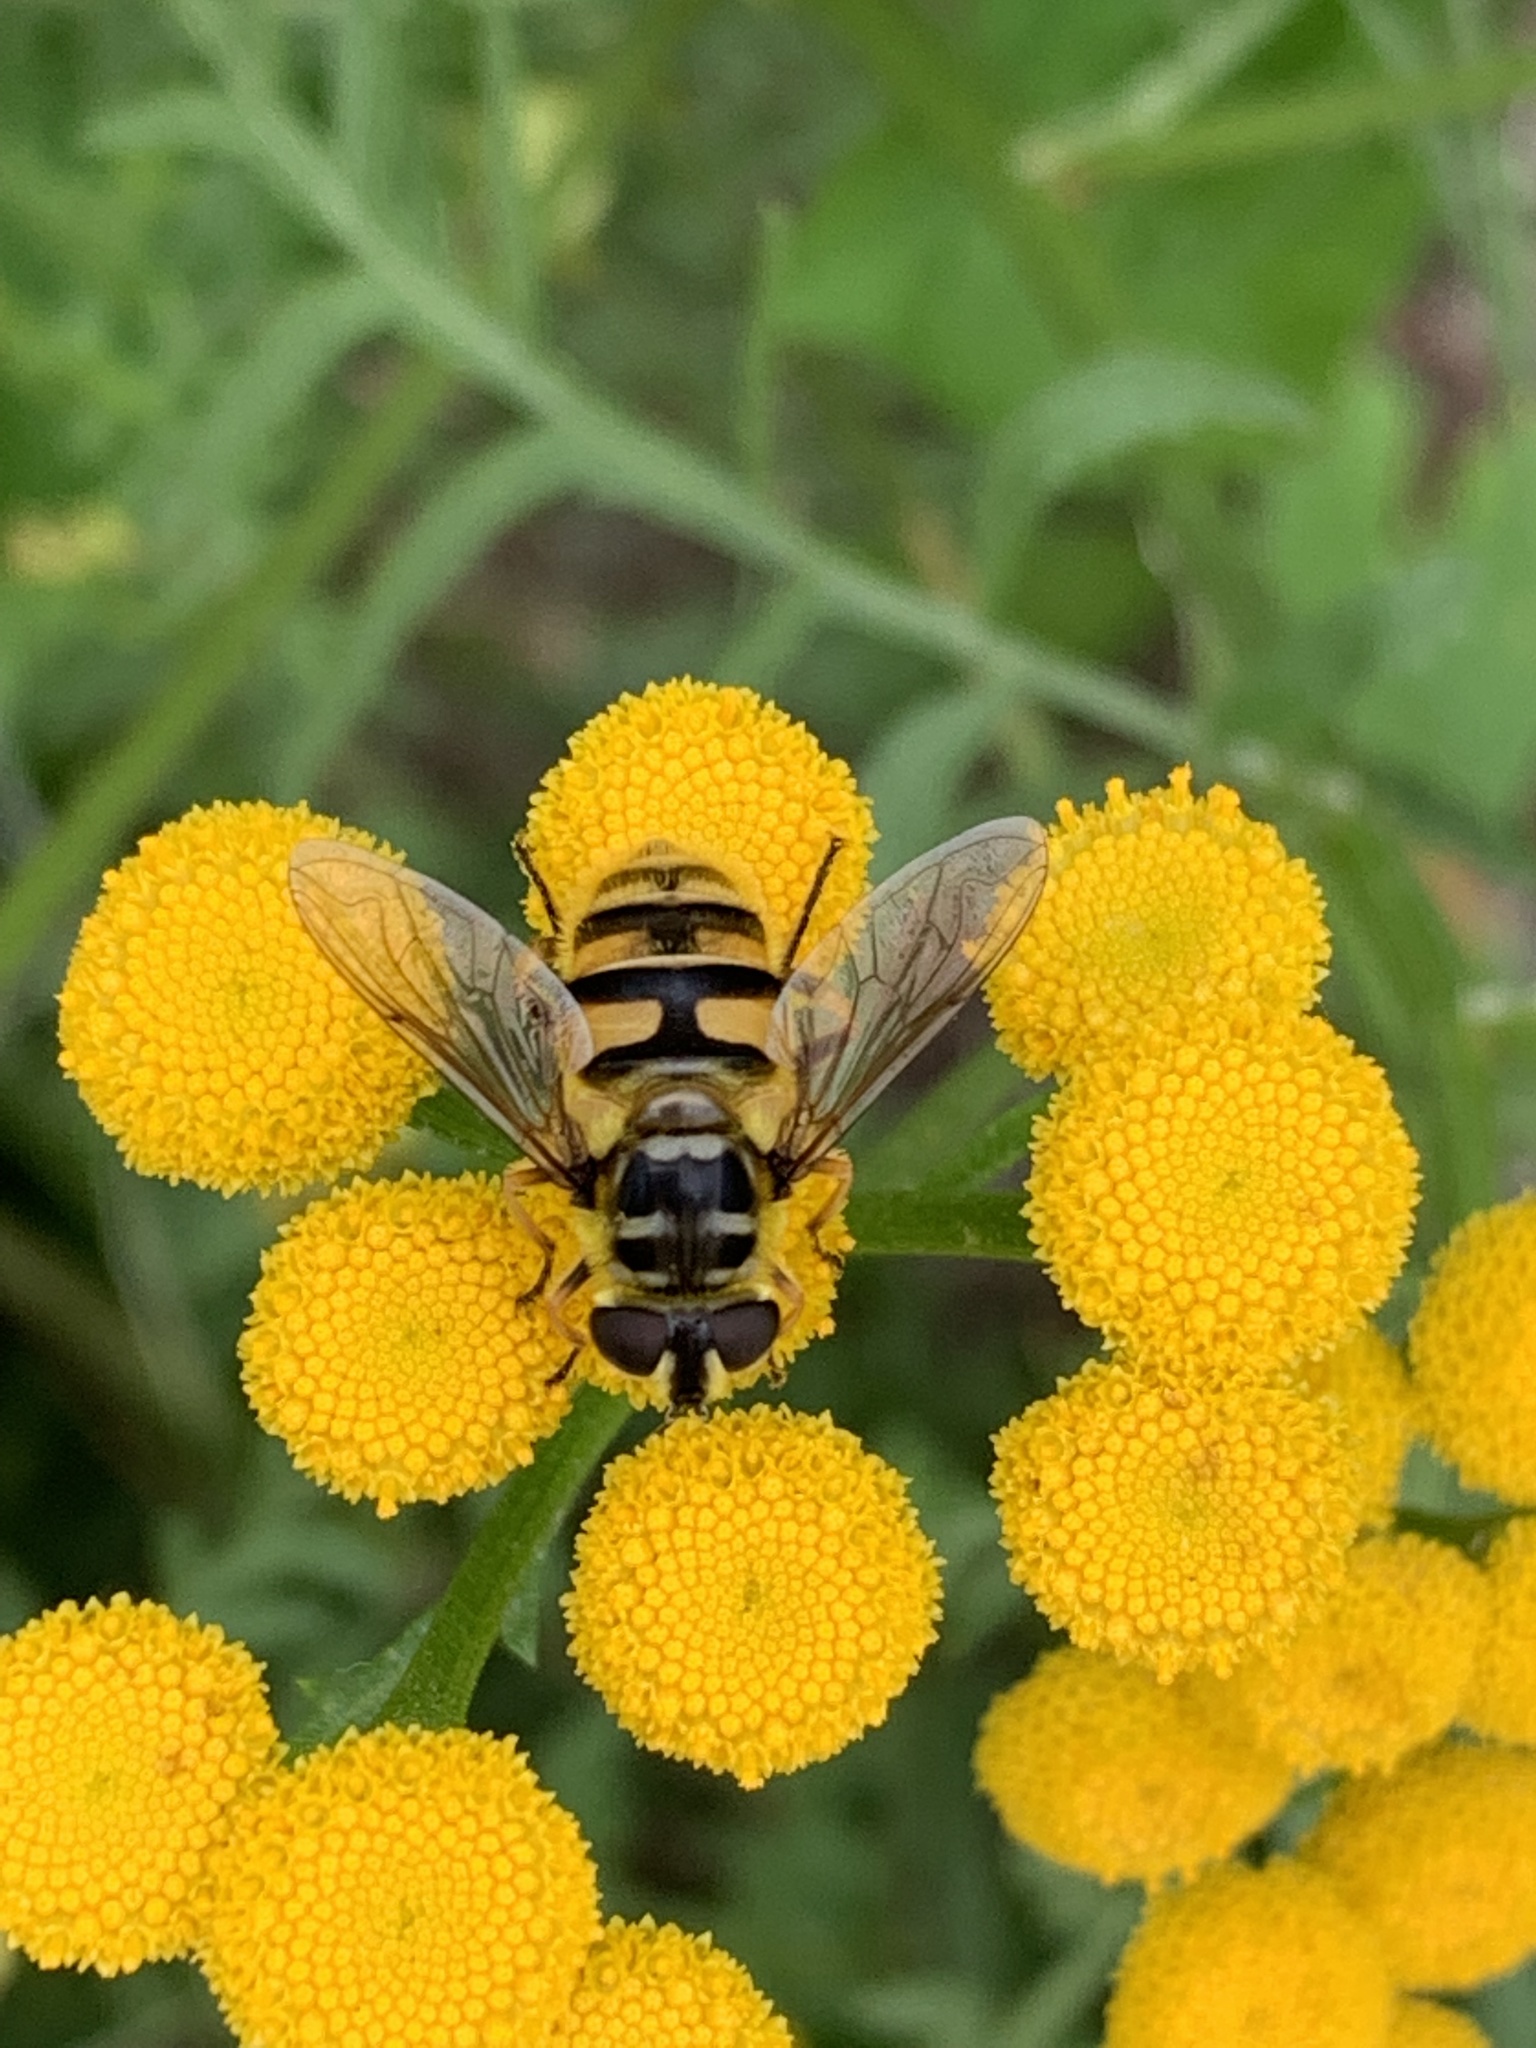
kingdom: Animalia
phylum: Arthropoda
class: Insecta
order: Diptera
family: Syrphidae
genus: Myathropa
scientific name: Myathropa florea
